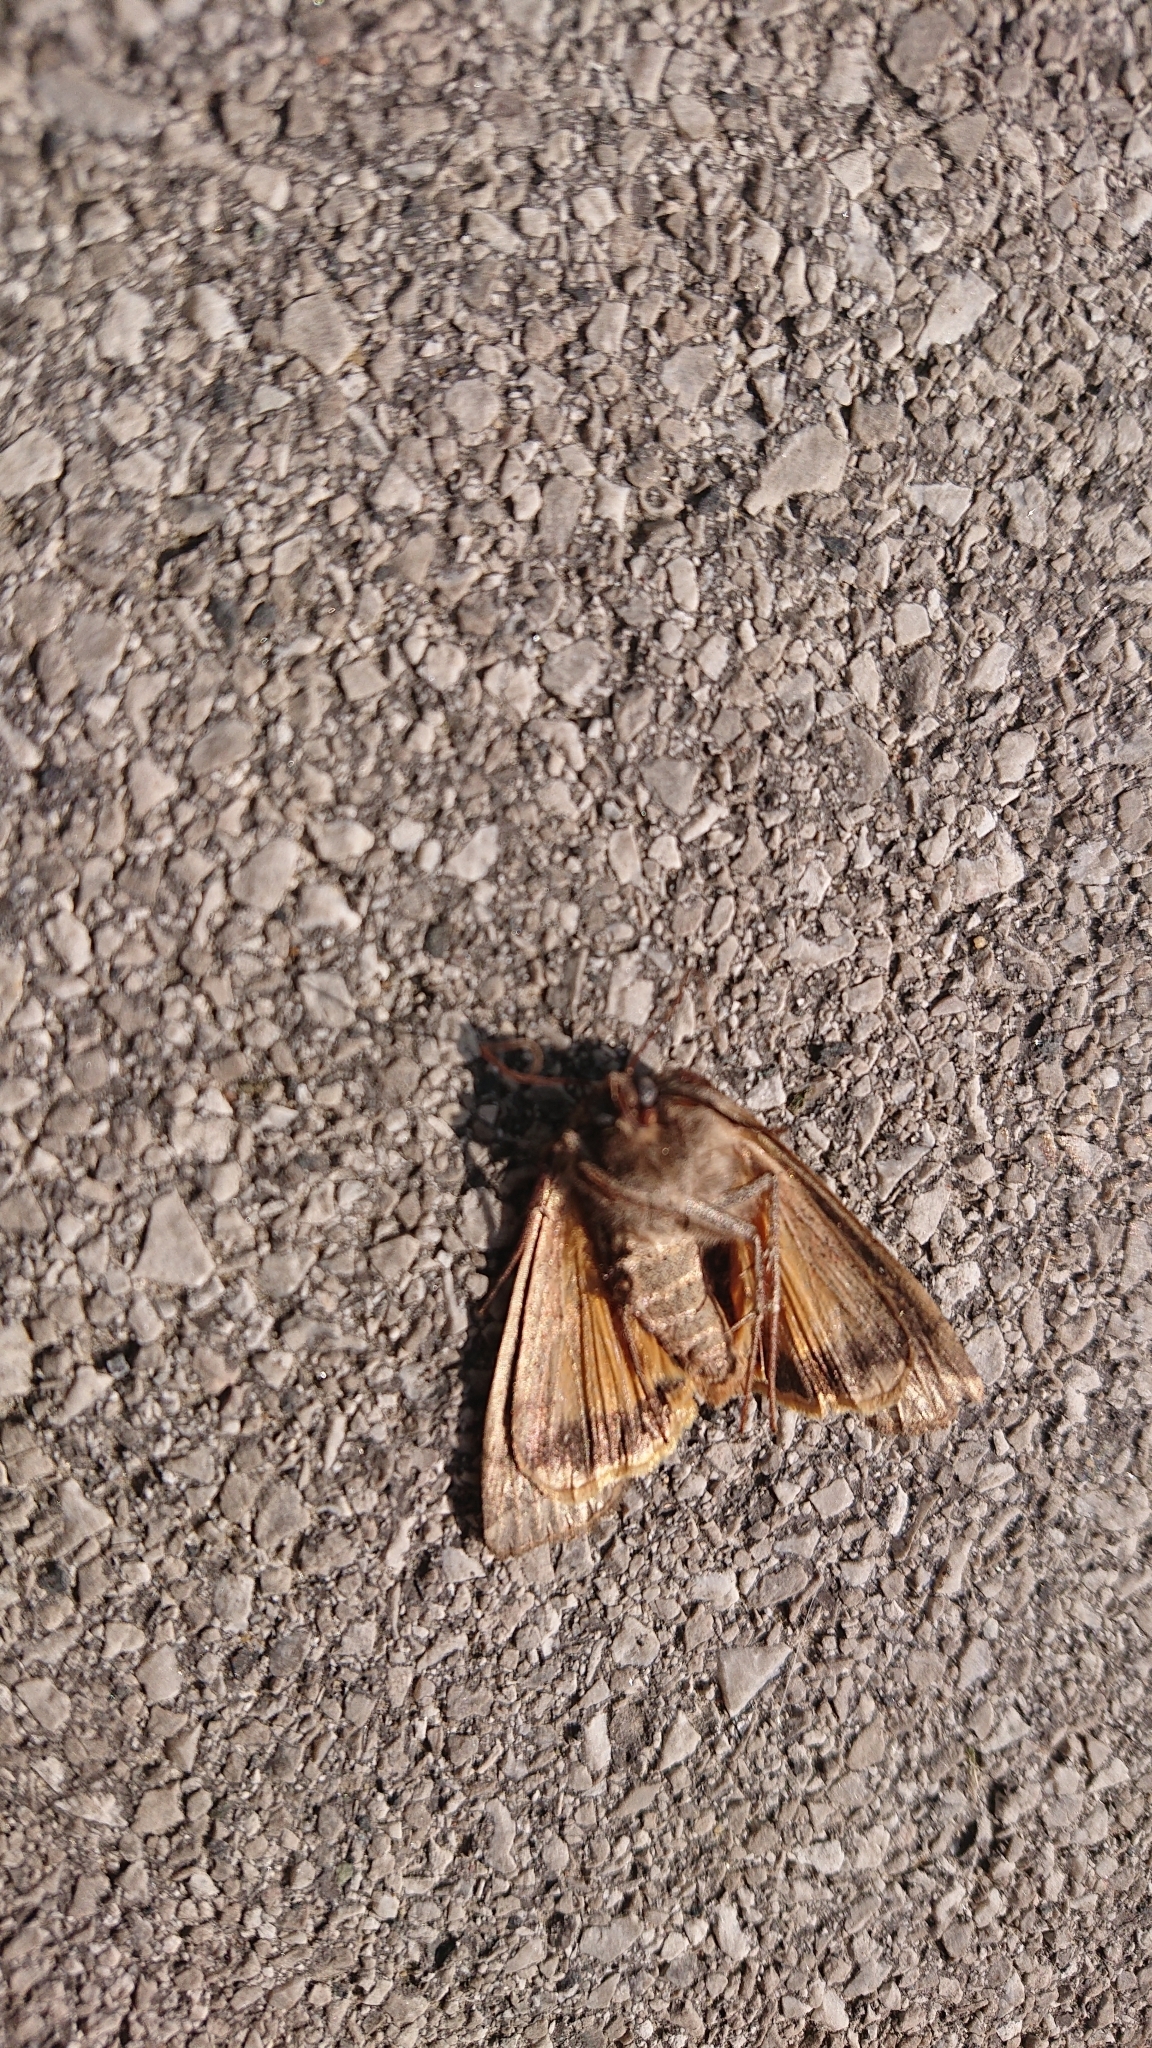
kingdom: Animalia
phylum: Arthropoda
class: Insecta
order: Lepidoptera
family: Noctuidae
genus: Noctua
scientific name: Noctua pronuba
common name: Large yellow underwing
